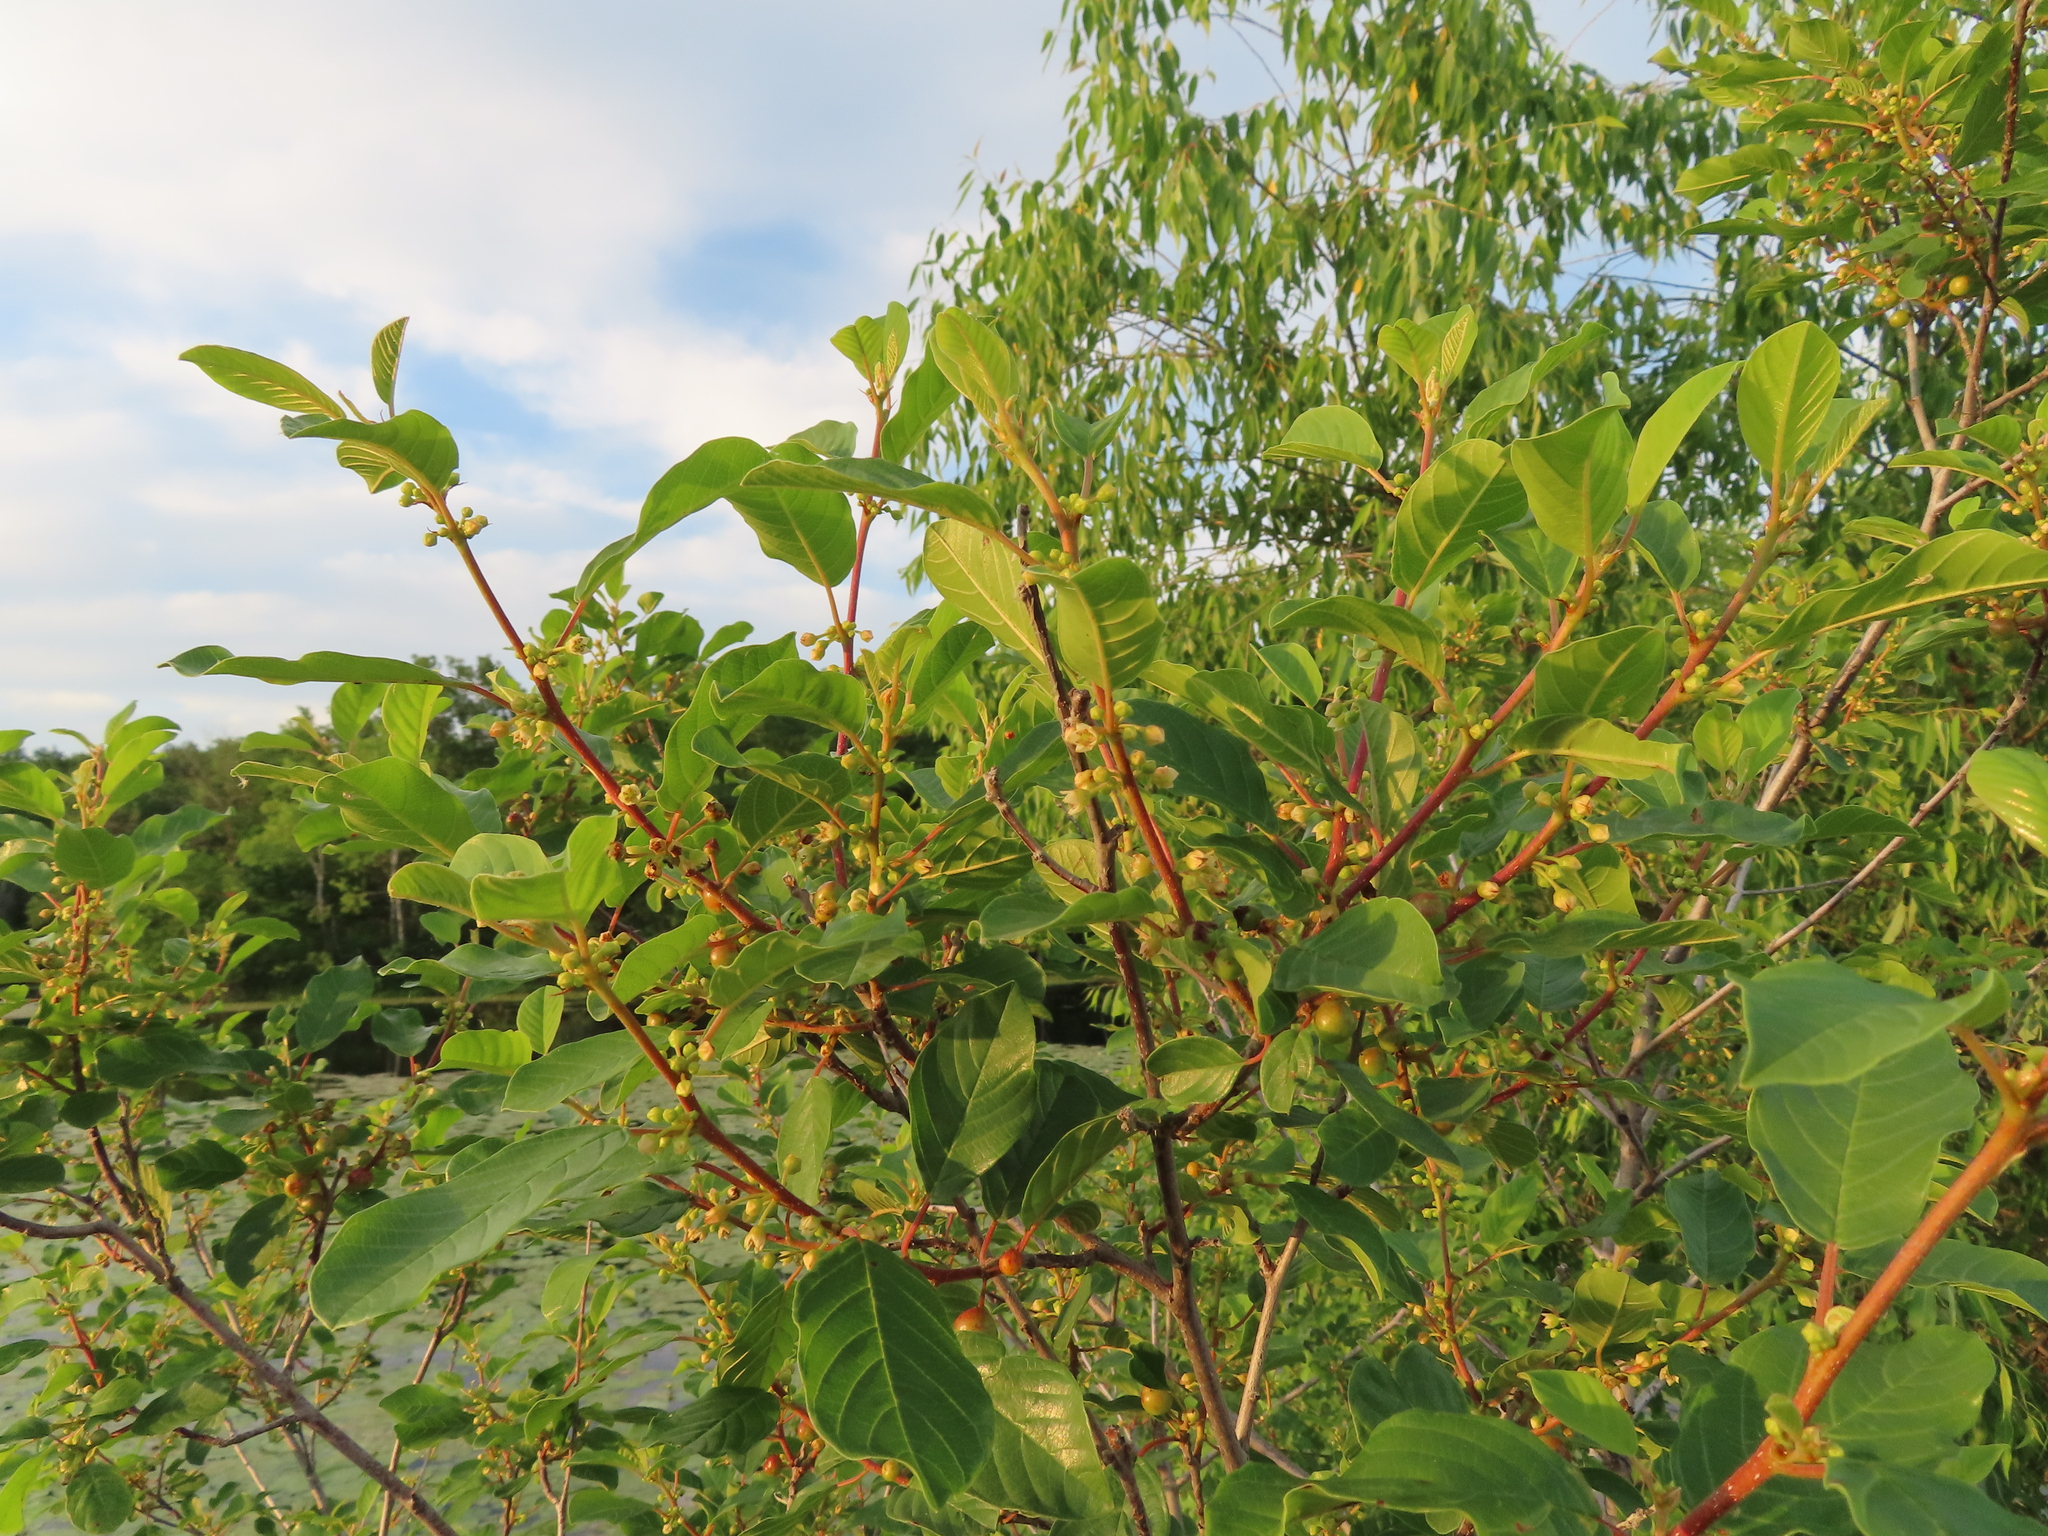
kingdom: Plantae
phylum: Tracheophyta
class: Magnoliopsida
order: Rosales
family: Rhamnaceae
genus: Frangula
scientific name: Frangula alnus
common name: Alder buckthorn
